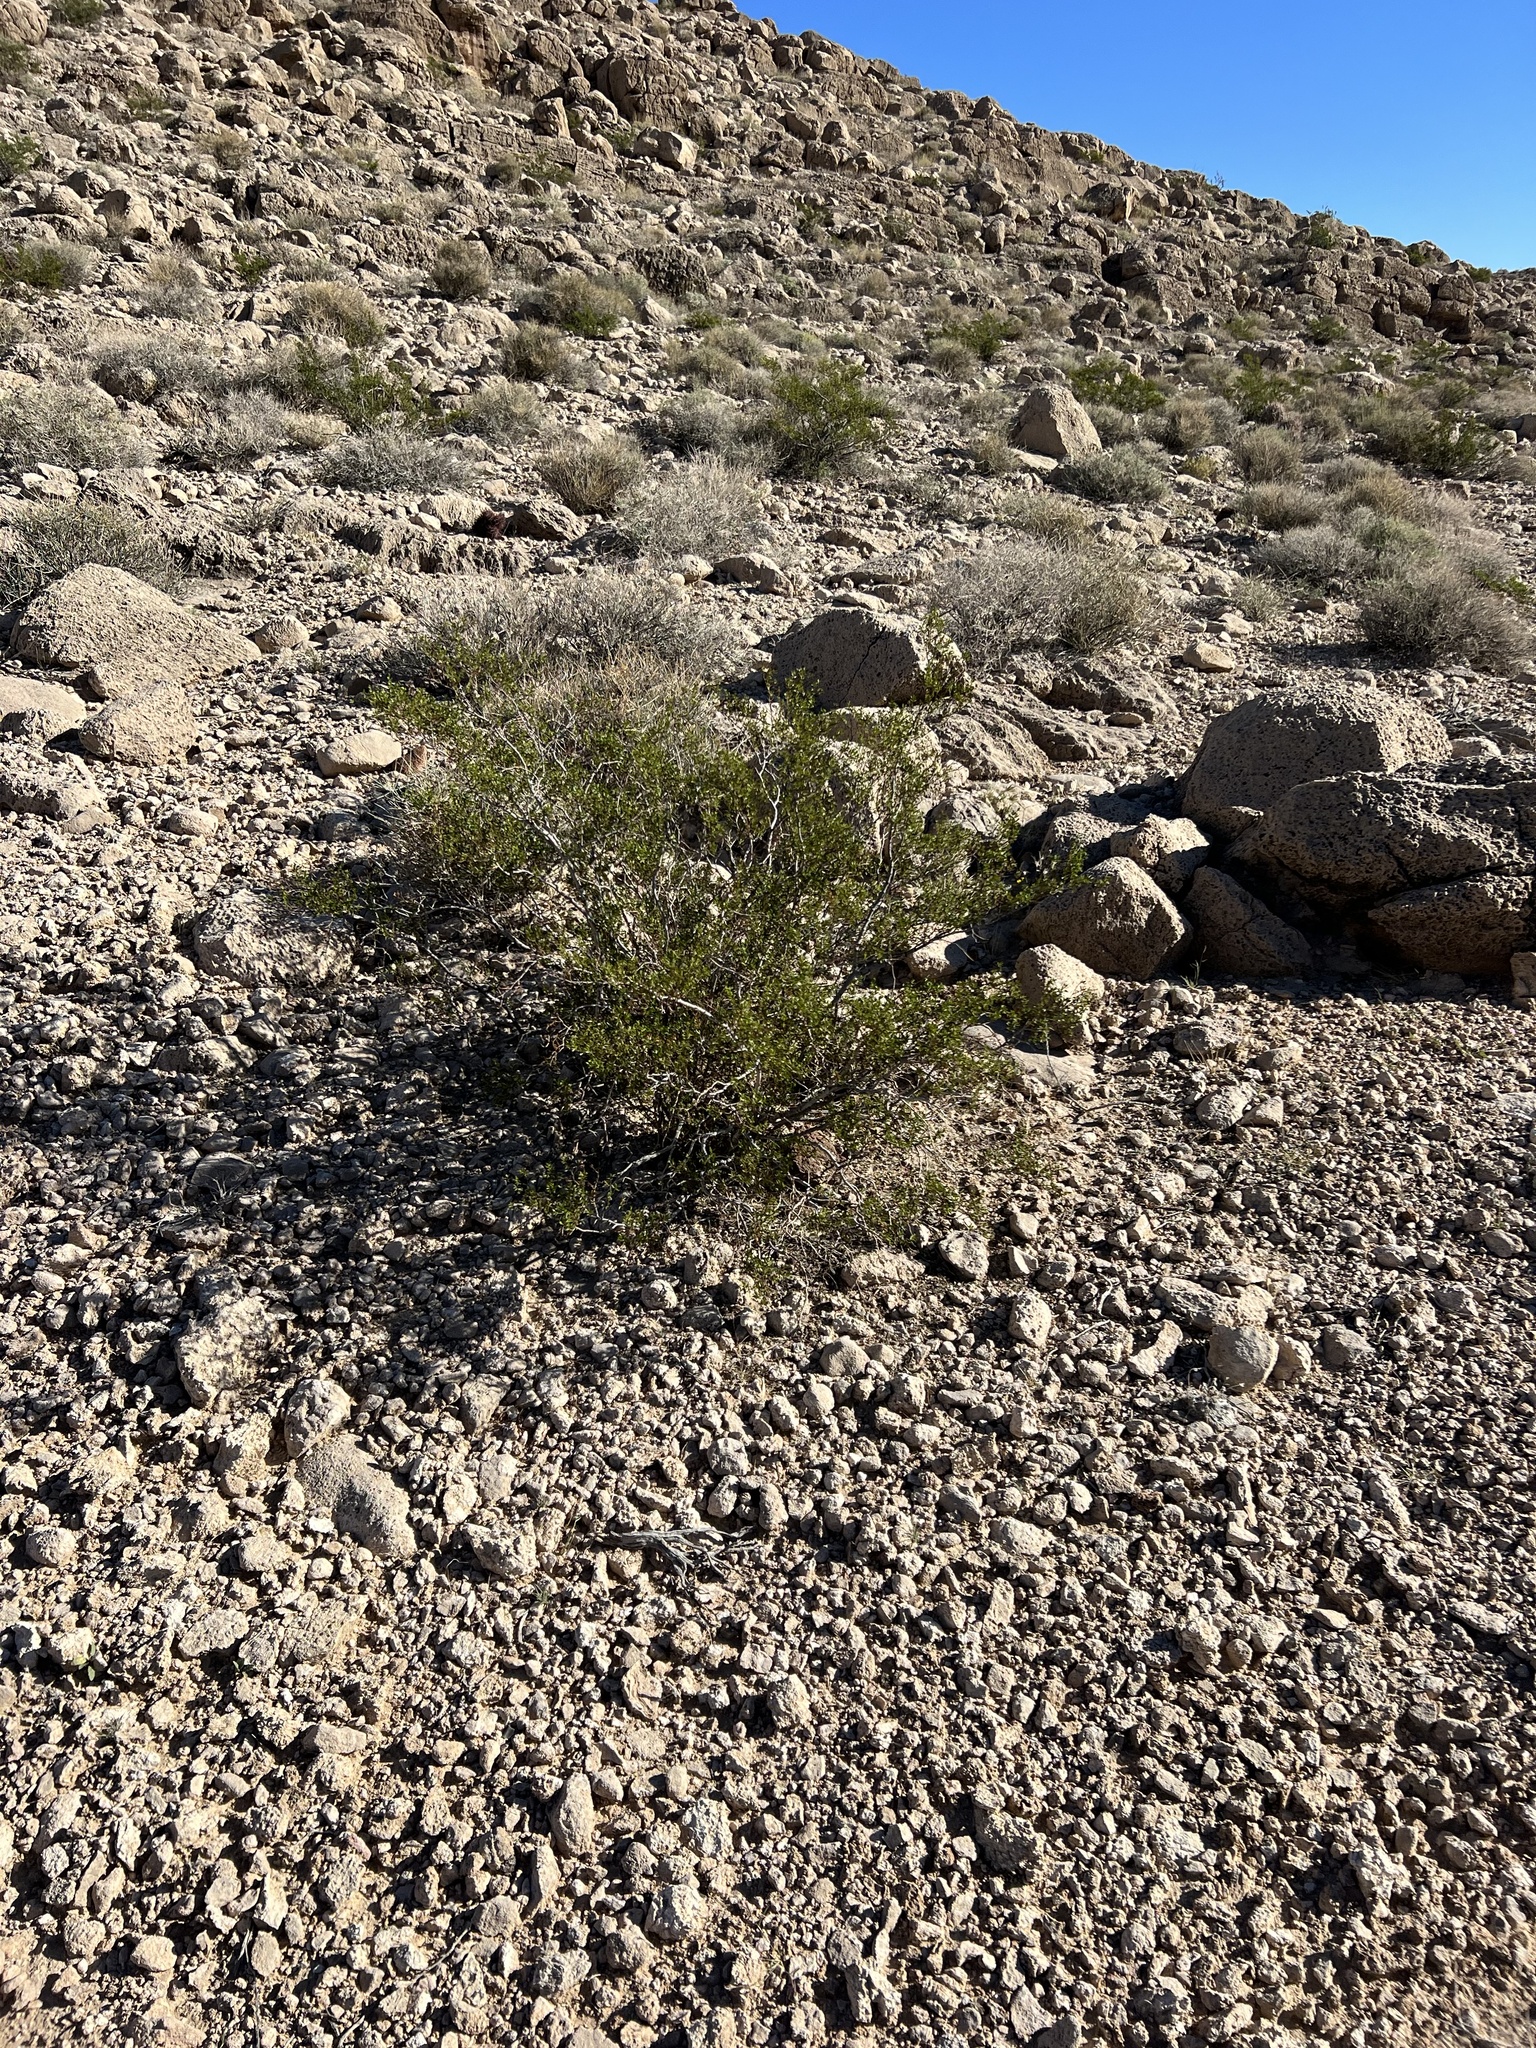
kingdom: Plantae
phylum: Tracheophyta
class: Magnoliopsida
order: Zygophyllales
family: Zygophyllaceae
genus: Larrea
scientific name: Larrea tridentata
